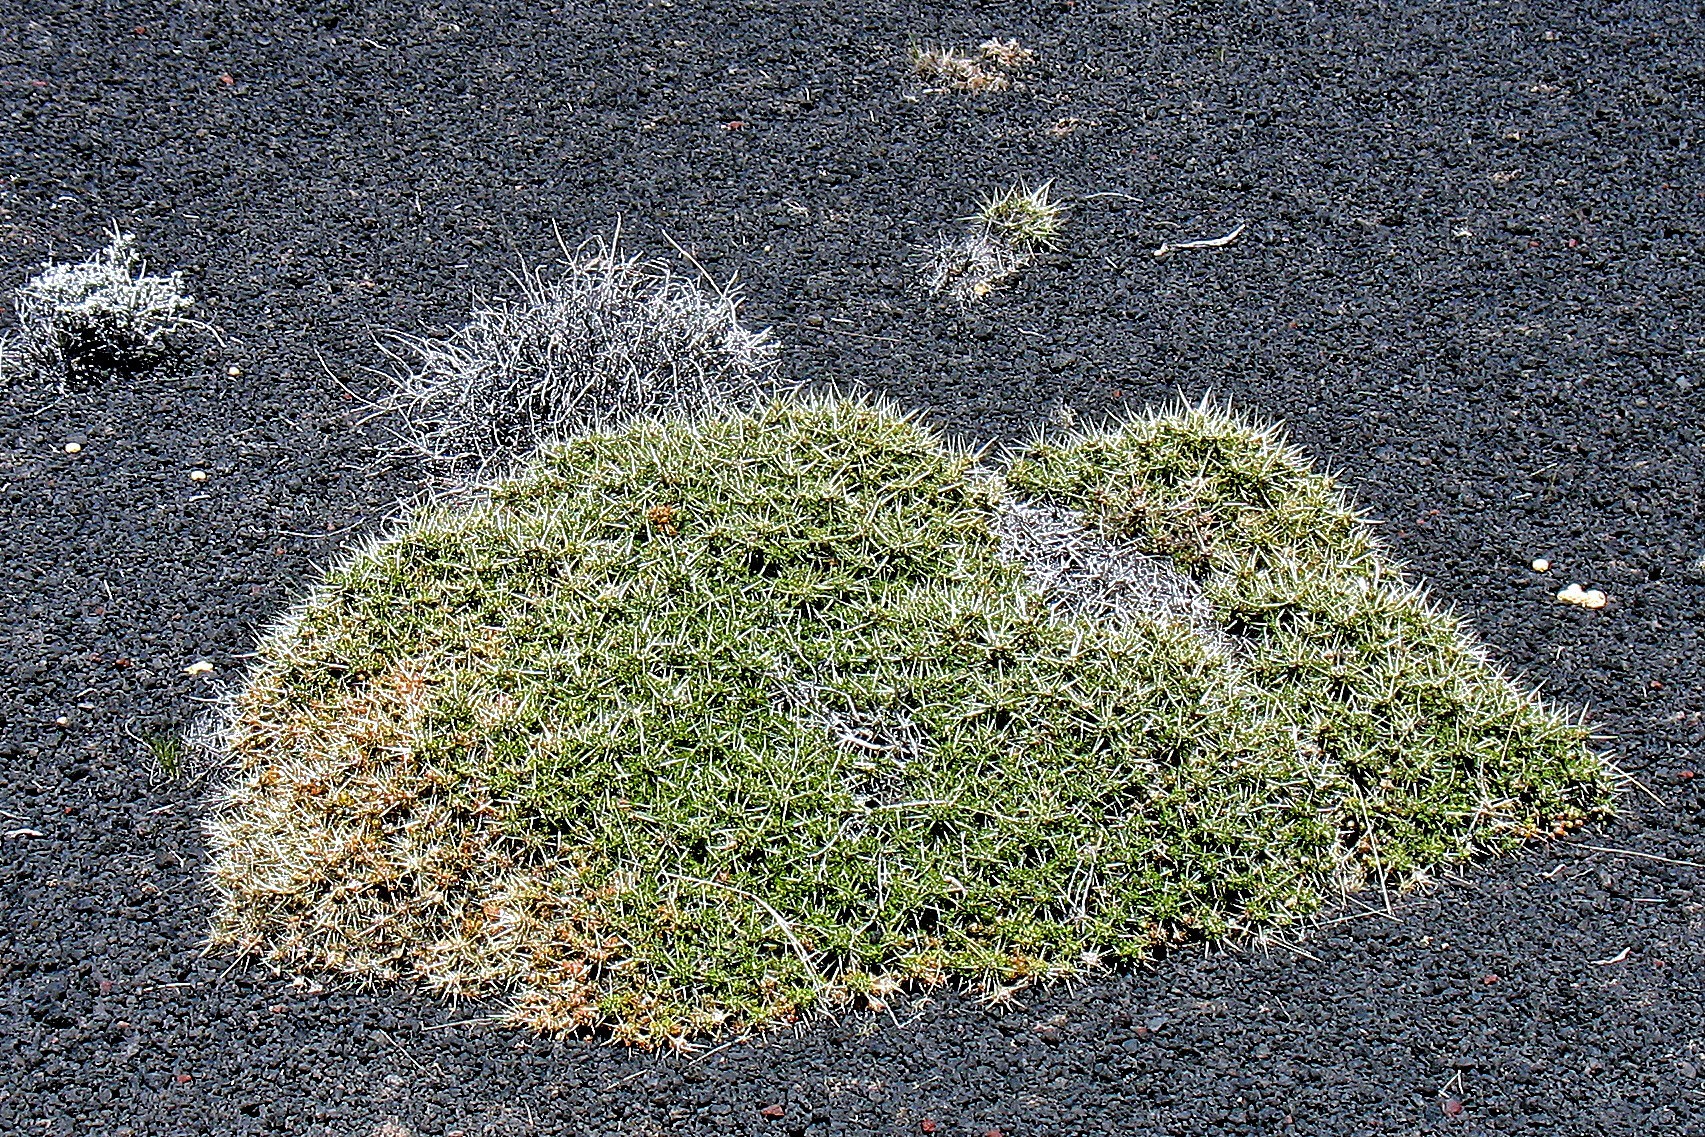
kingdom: Plantae
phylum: Tracheophyta
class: Magnoliopsida
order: Caryophyllales
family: Cactaceae
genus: Maihuenia
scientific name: Maihuenia patagonica
